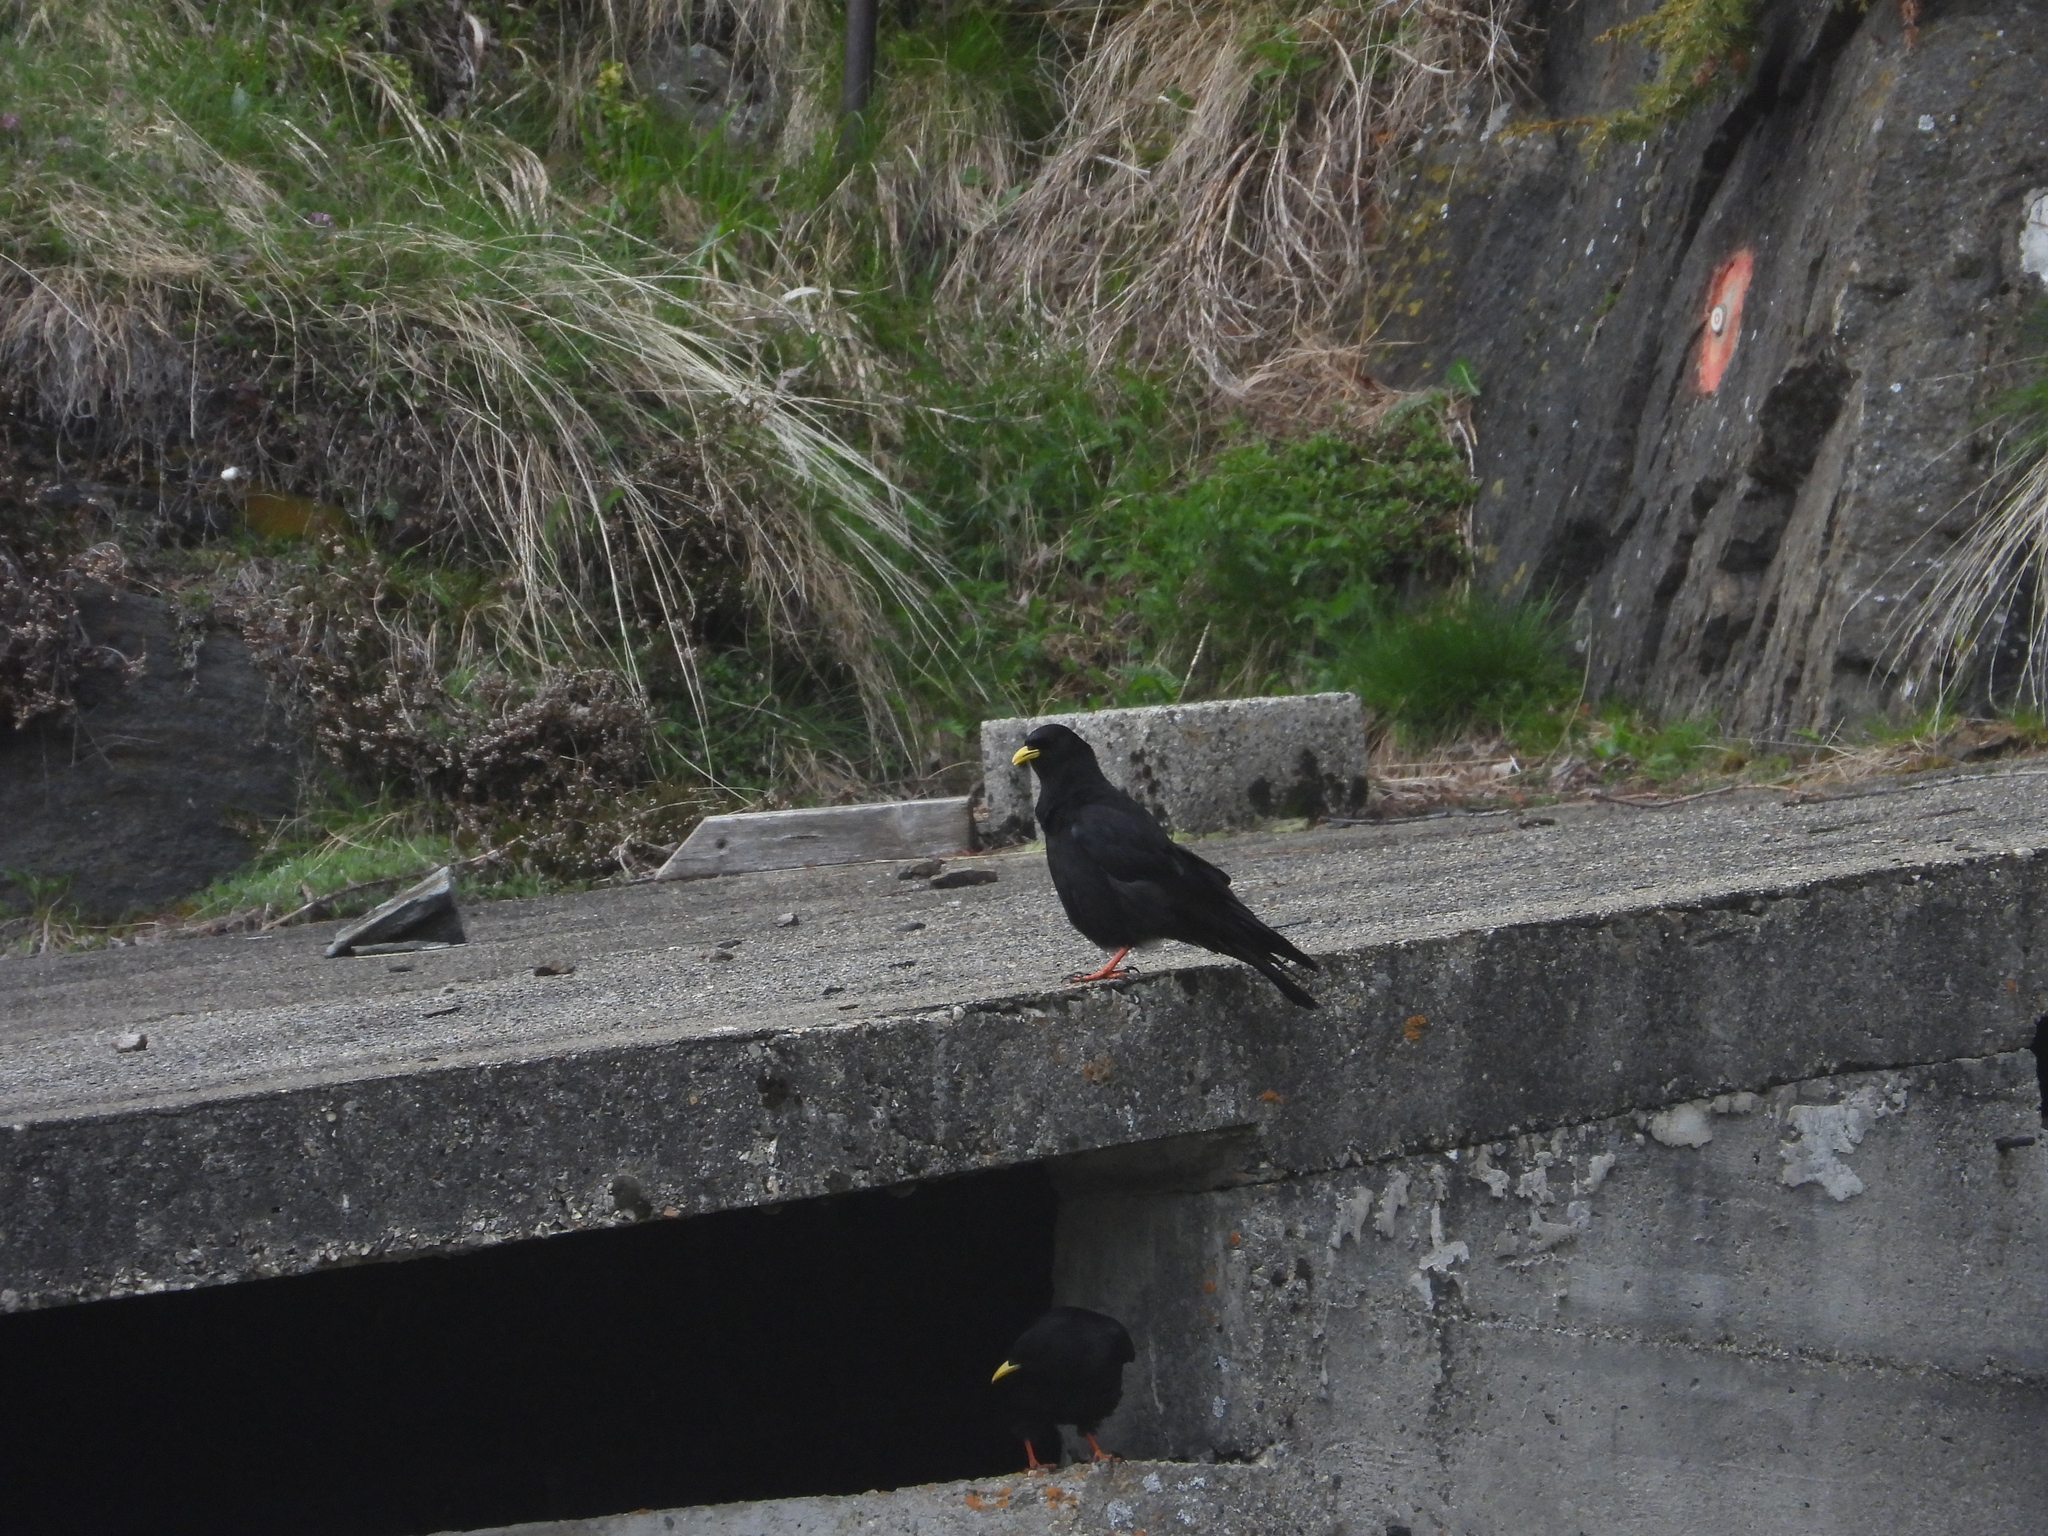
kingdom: Animalia
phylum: Chordata
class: Aves
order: Passeriformes
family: Corvidae
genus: Pyrrhocorax
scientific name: Pyrrhocorax graculus
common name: Alpine chough
